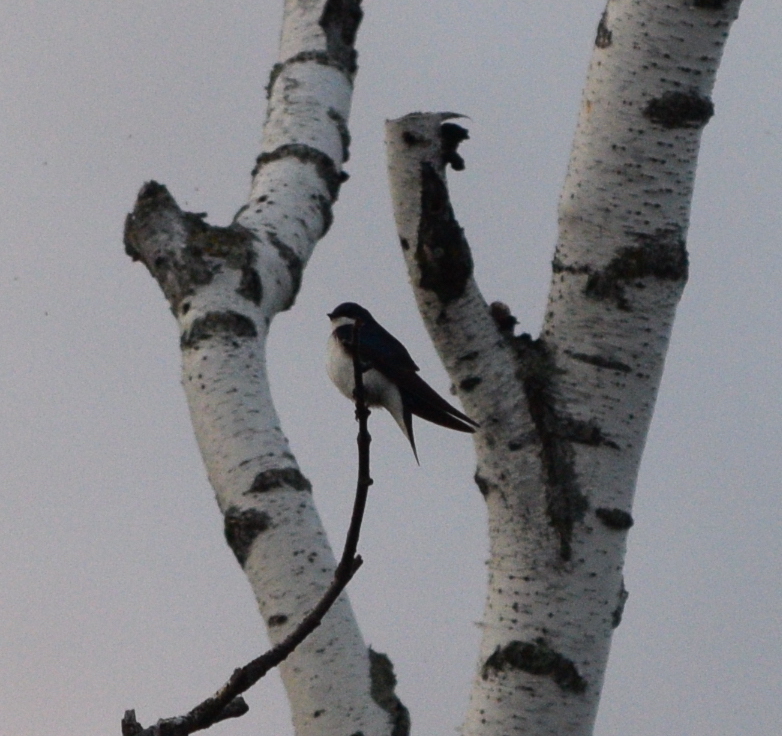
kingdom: Animalia
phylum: Chordata
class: Aves
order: Passeriformes
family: Hirundinidae
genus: Tachycineta
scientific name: Tachycineta bicolor
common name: Tree swallow
